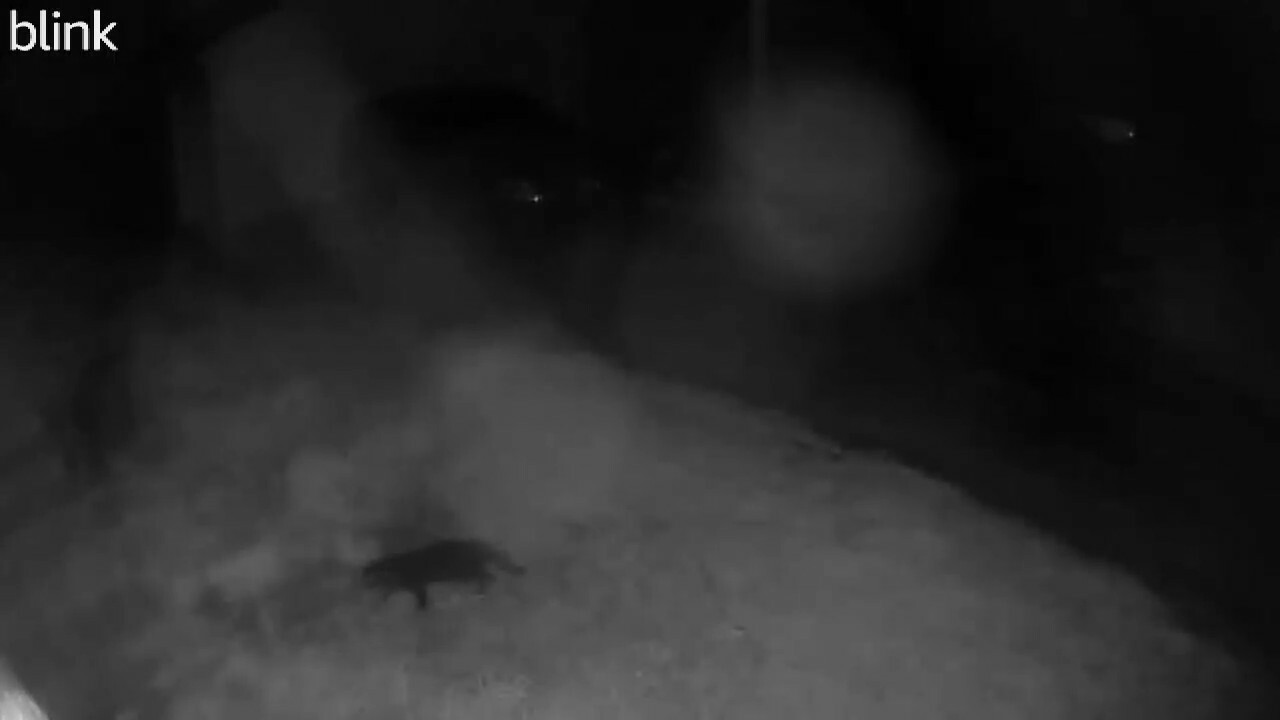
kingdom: Animalia
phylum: Chordata
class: Mammalia
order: Carnivora
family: Felidae
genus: Felis
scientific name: Felis catus
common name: Domestic cat
